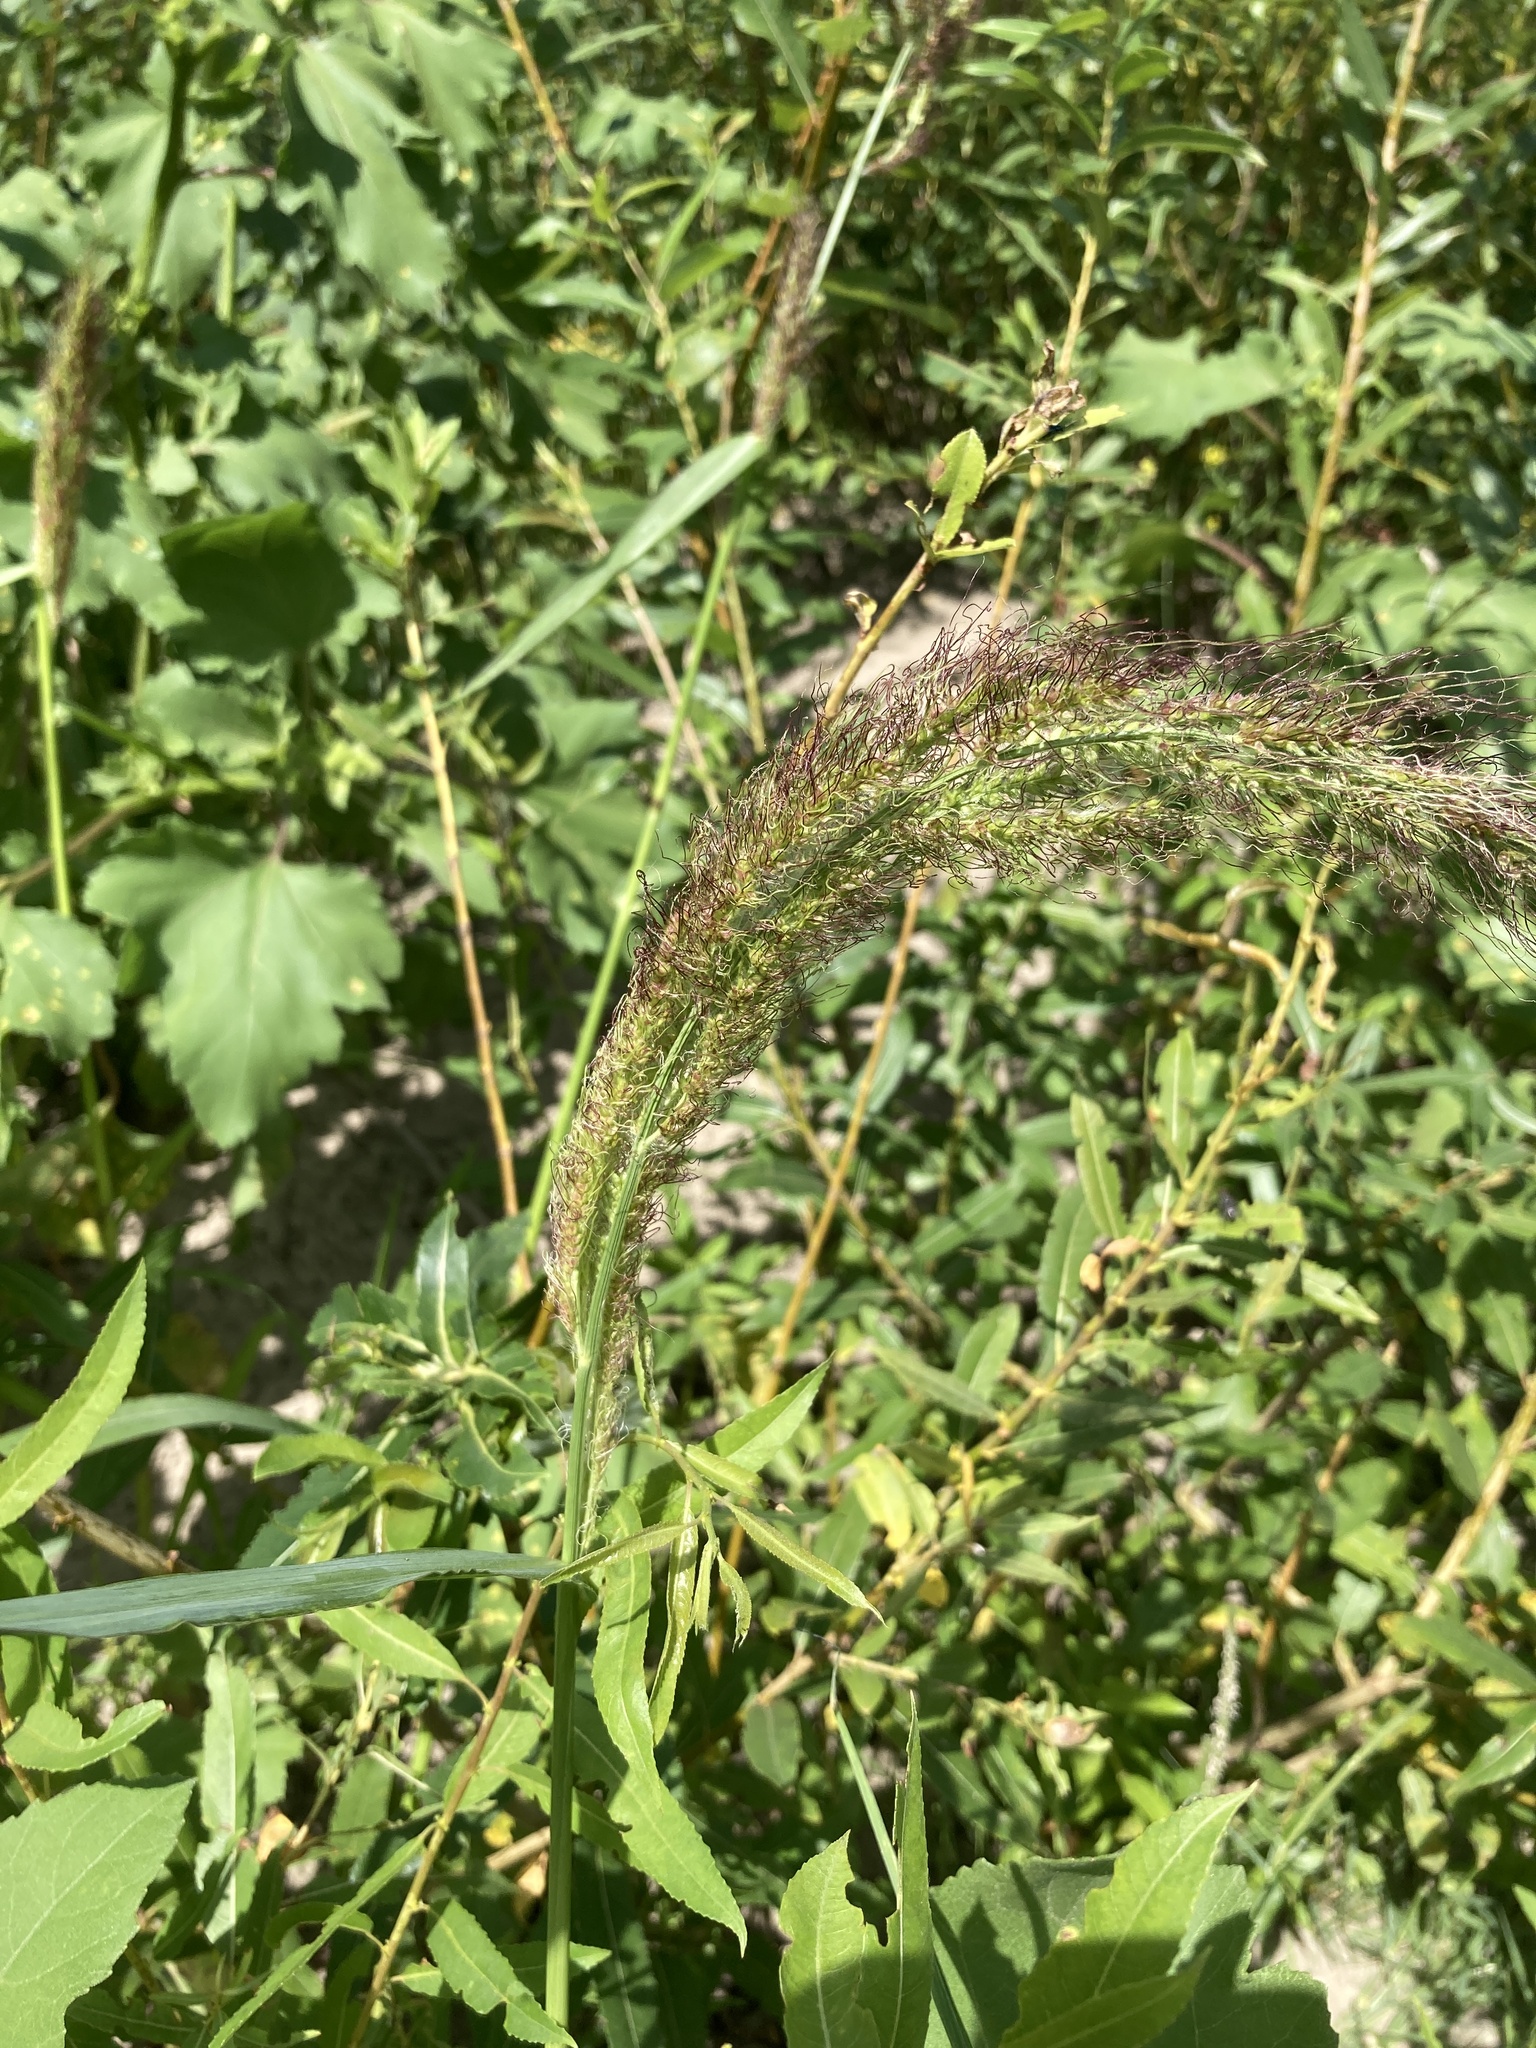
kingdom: Plantae
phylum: Tracheophyta
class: Liliopsida
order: Poales
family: Poaceae
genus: Echinochloa
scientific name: Echinochloa crus-galli
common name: Cockspur
